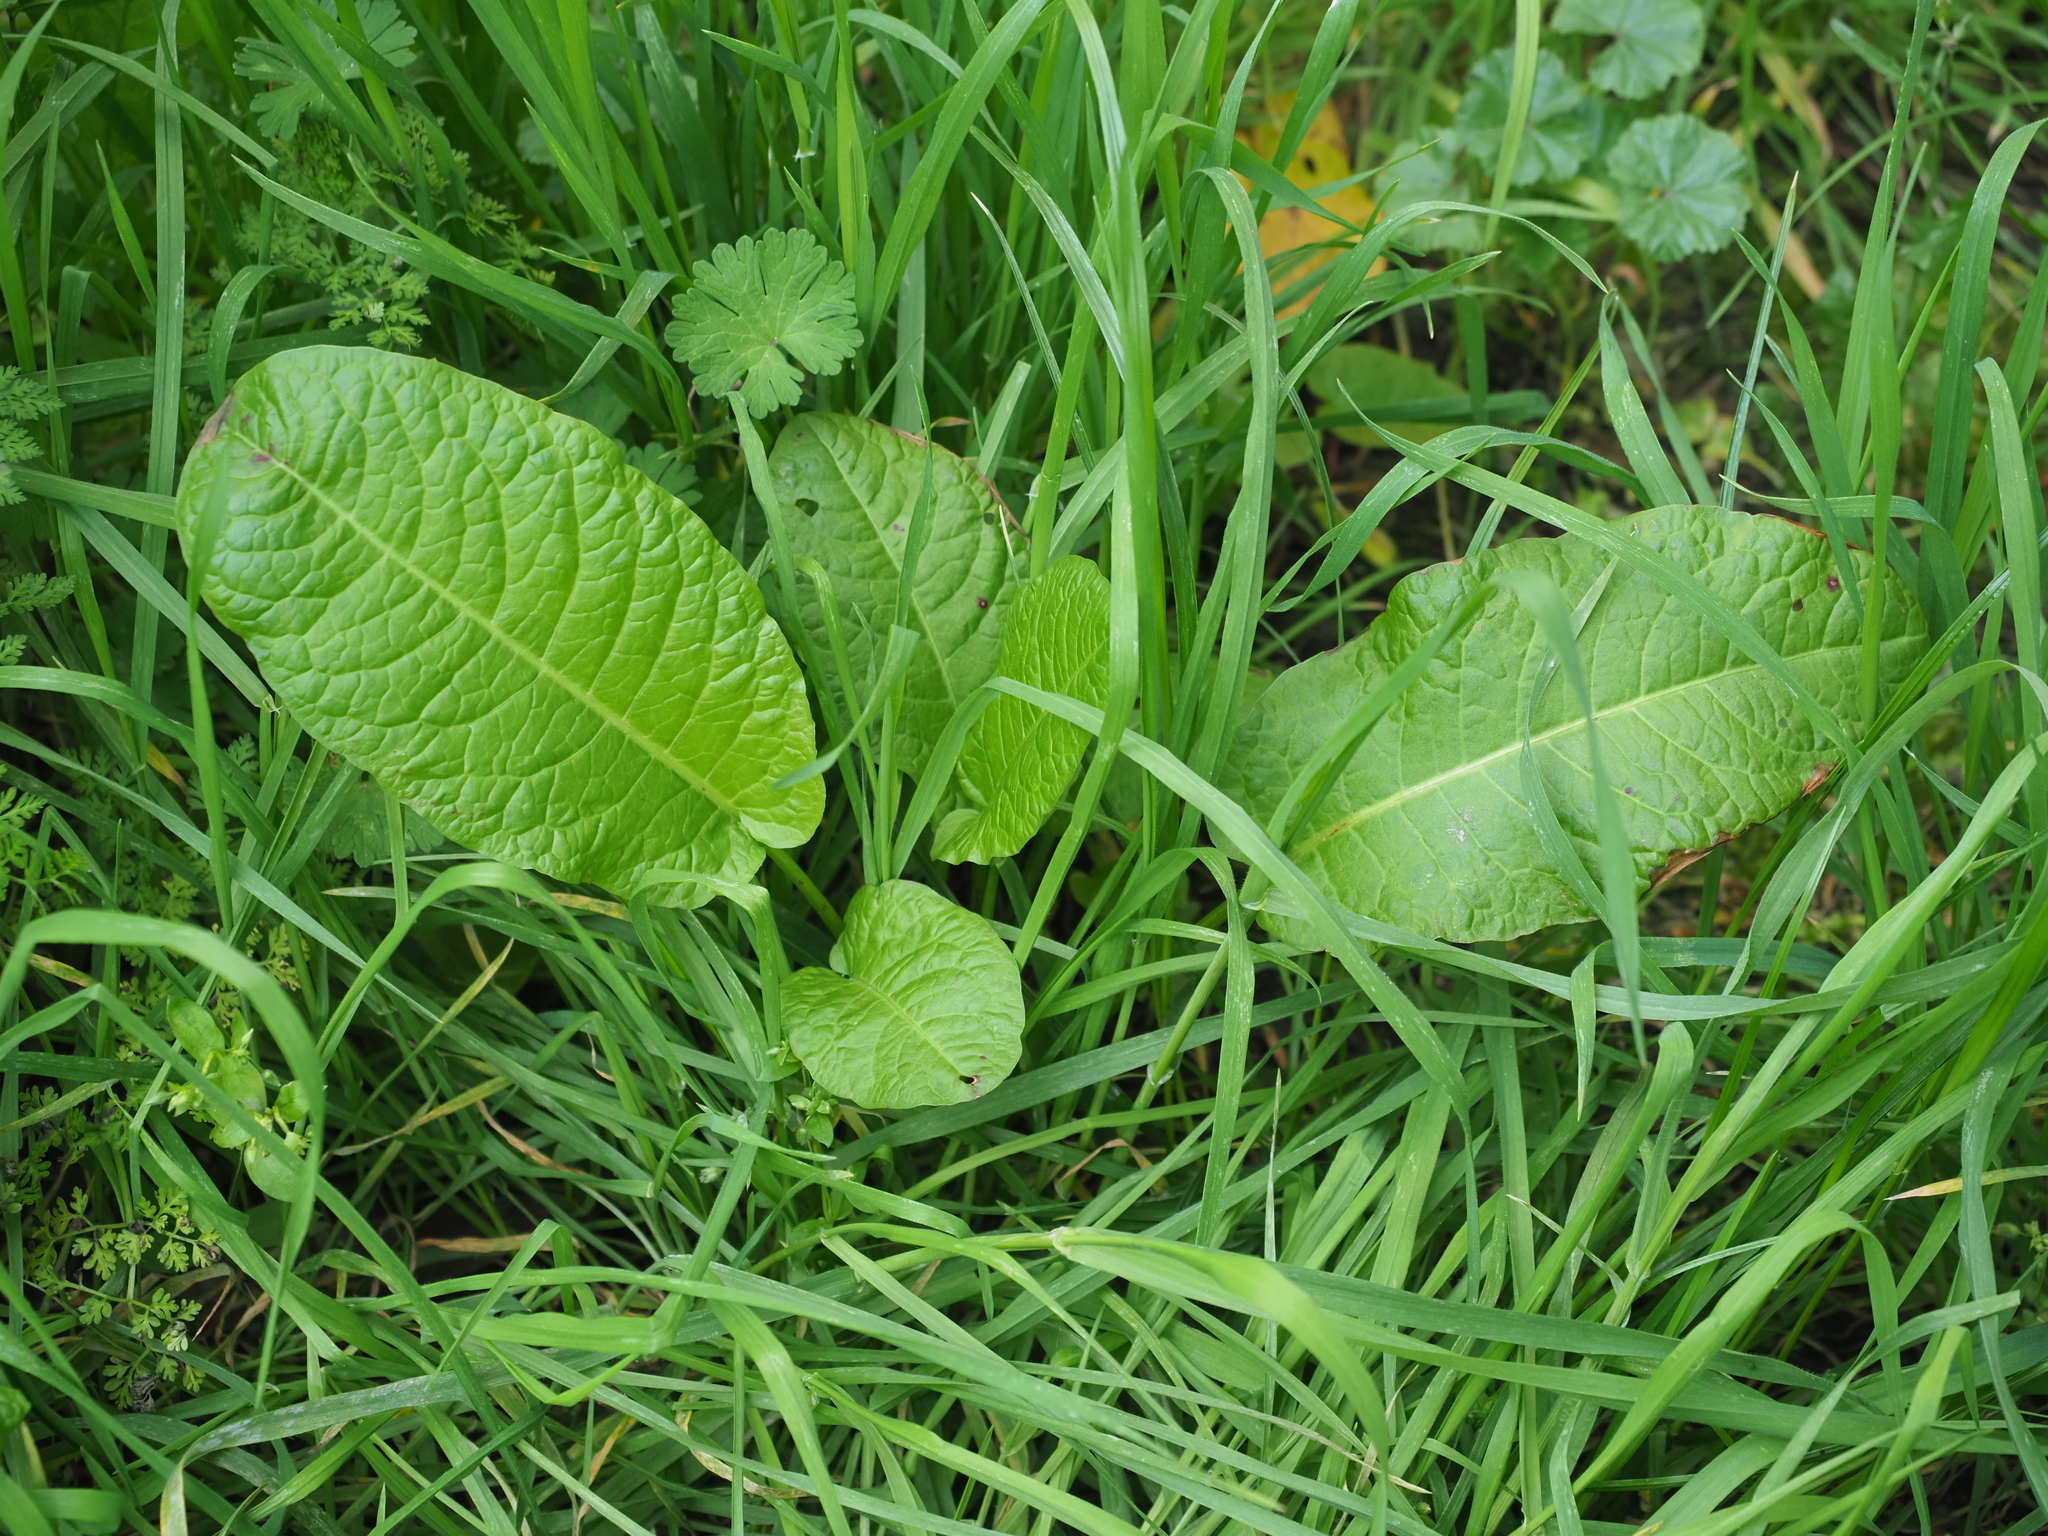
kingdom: Plantae
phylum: Tracheophyta
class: Magnoliopsida
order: Caryophyllales
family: Polygonaceae
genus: Rumex
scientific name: Rumex obtusifolius
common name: Bitter dock
